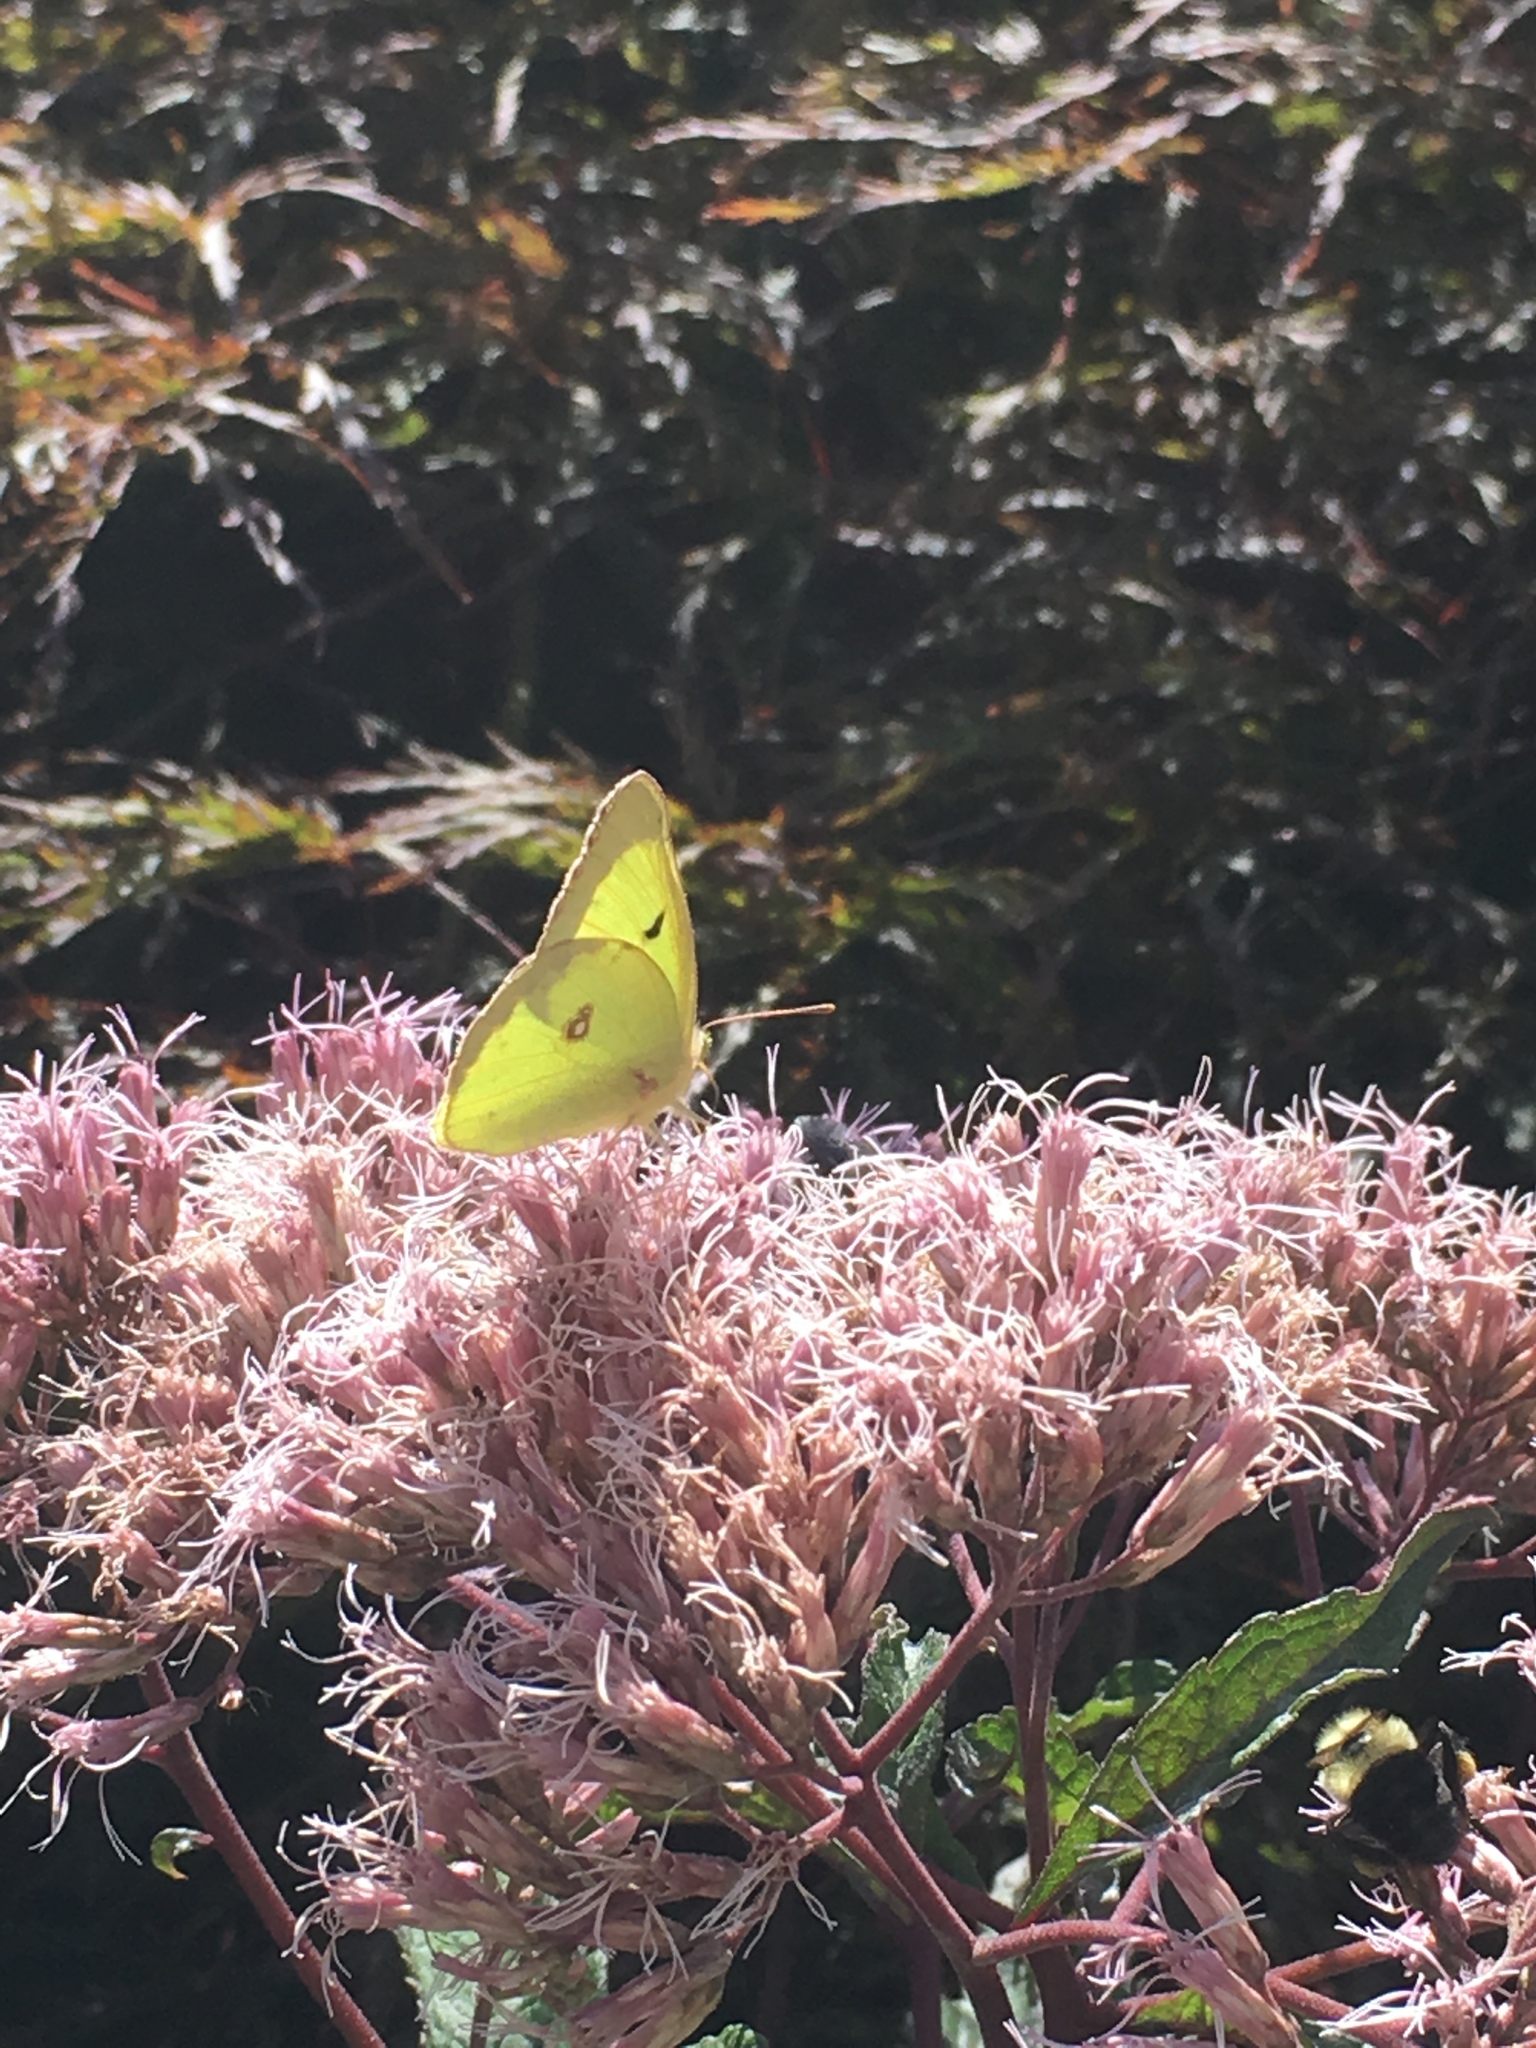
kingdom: Animalia
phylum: Arthropoda
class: Insecta
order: Lepidoptera
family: Pieridae
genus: Colias
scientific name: Colias philodice
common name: Clouded sulphur
